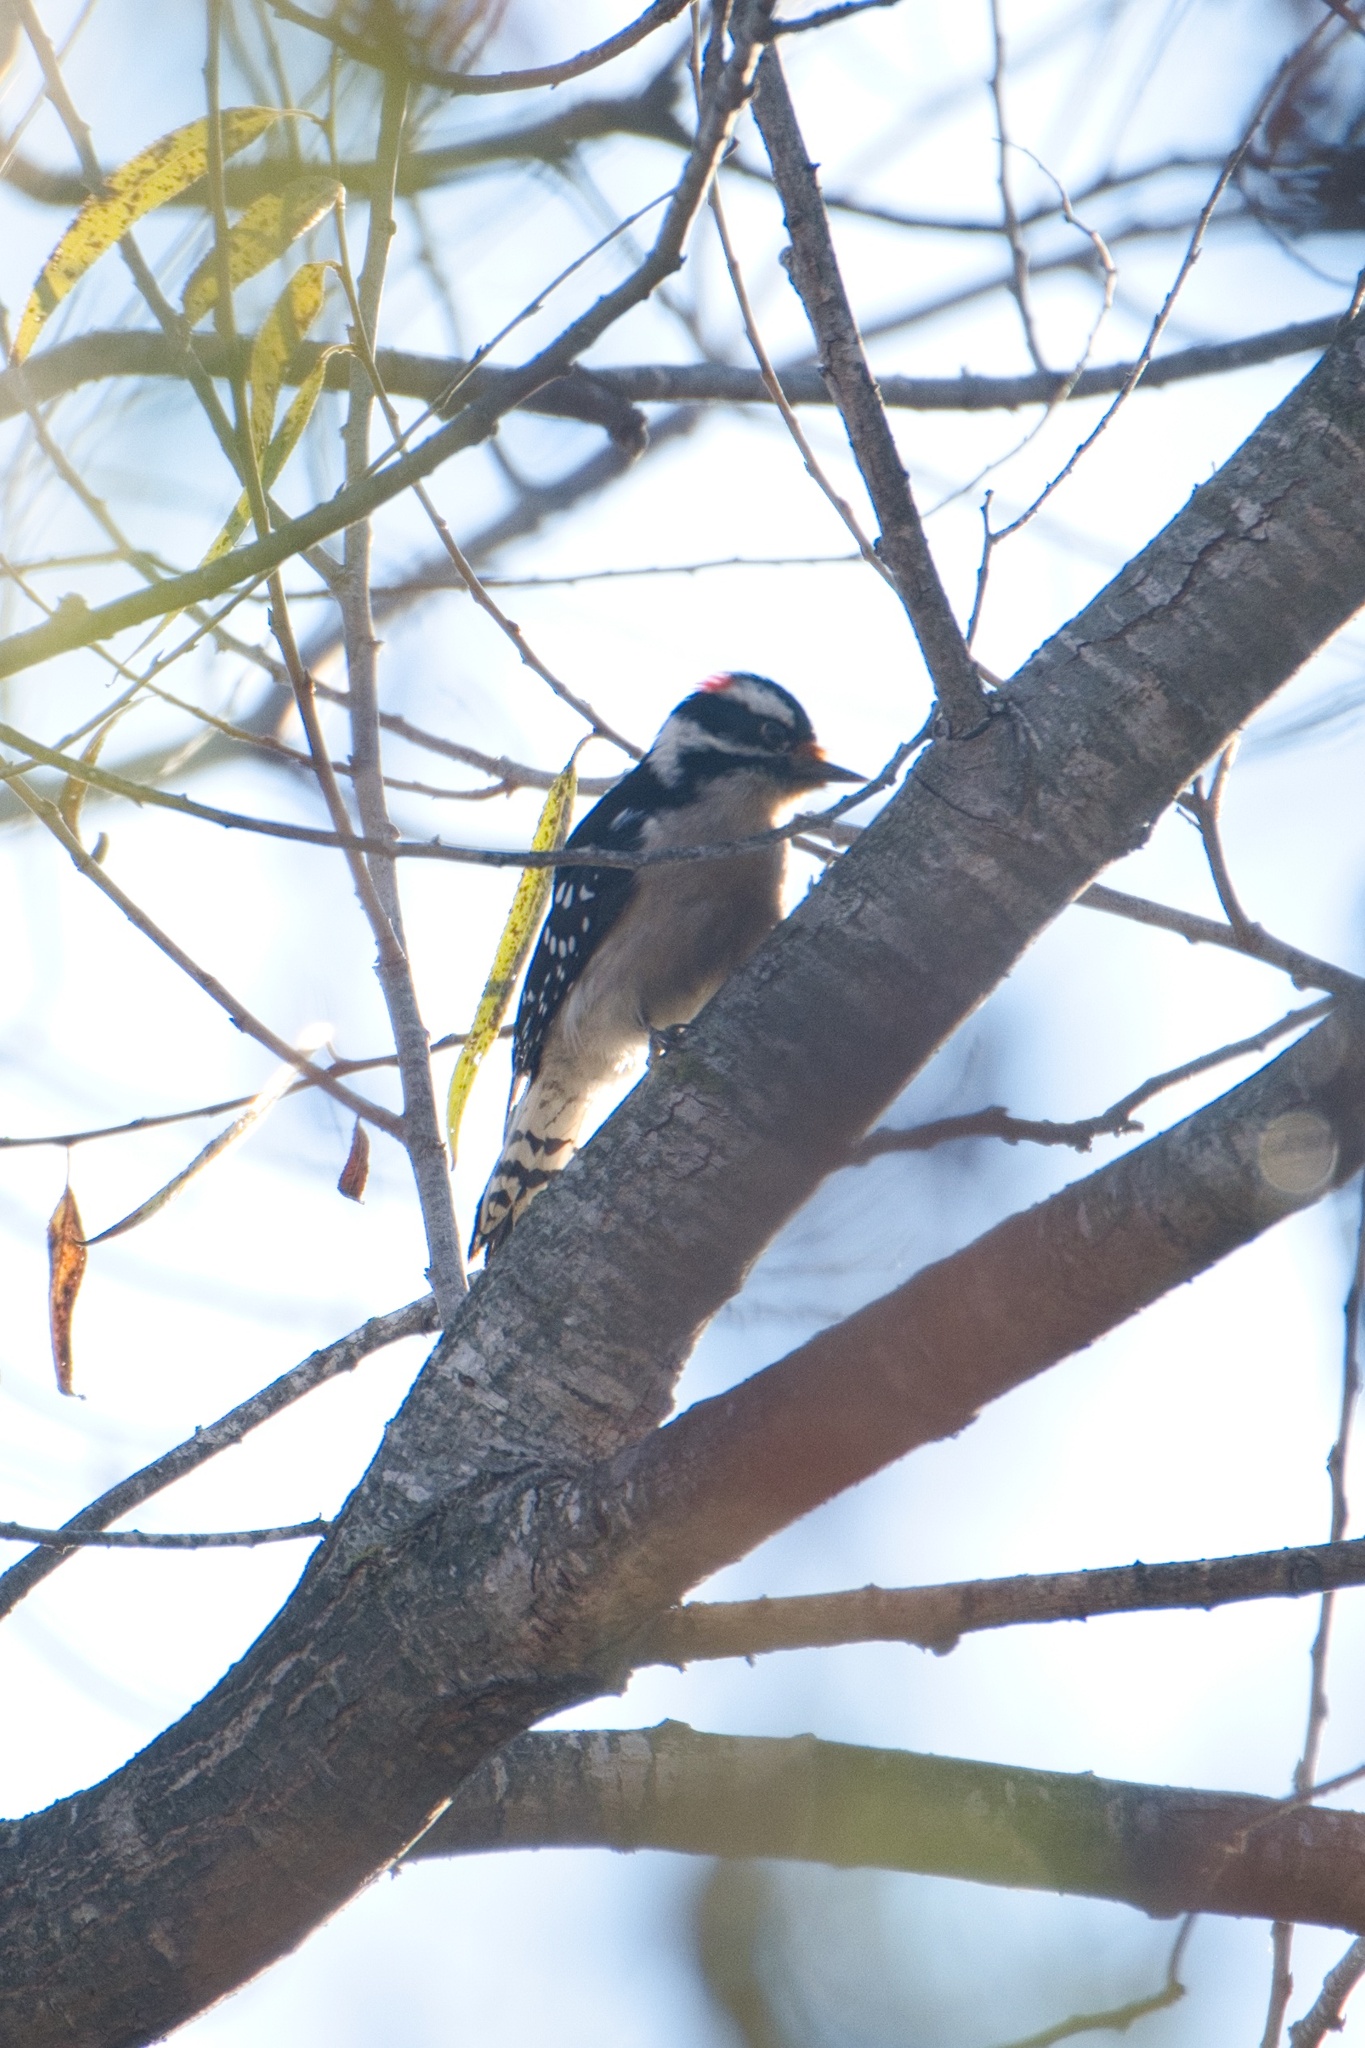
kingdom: Animalia
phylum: Chordata
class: Aves
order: Piciformes
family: Picidae
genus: Dryobates
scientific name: Dryobates pubescens
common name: Downy woodpecker
